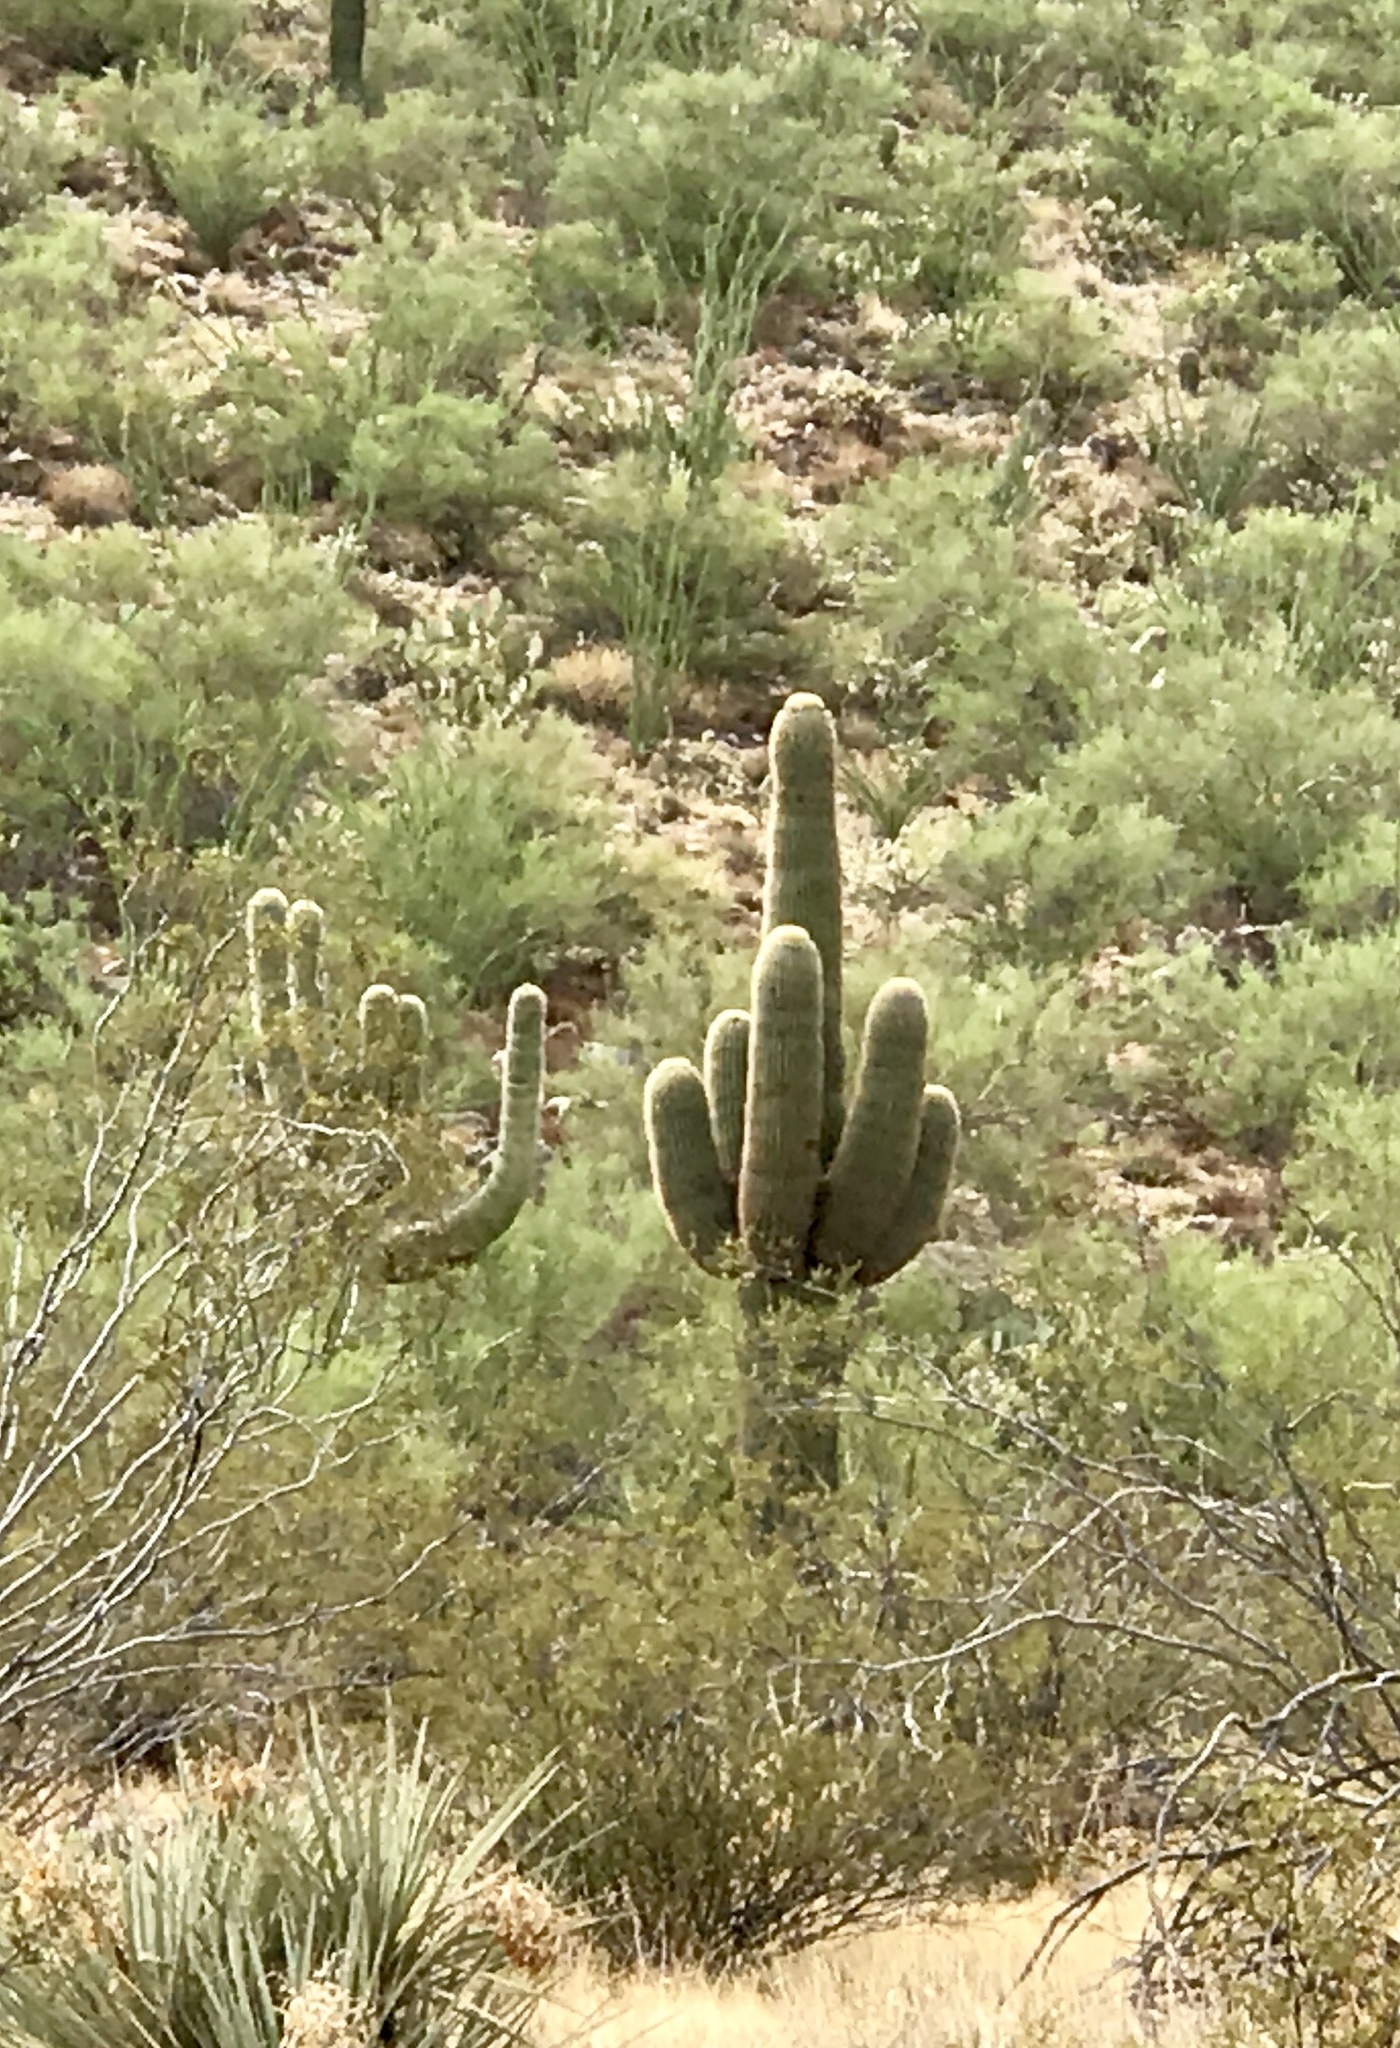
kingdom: Plantae
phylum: Tracheophyta
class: Magnoliopsida
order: Caryophyllales
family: Cactaceae
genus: Carnegiea
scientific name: Carnegiea gigantea
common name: Saguaro
